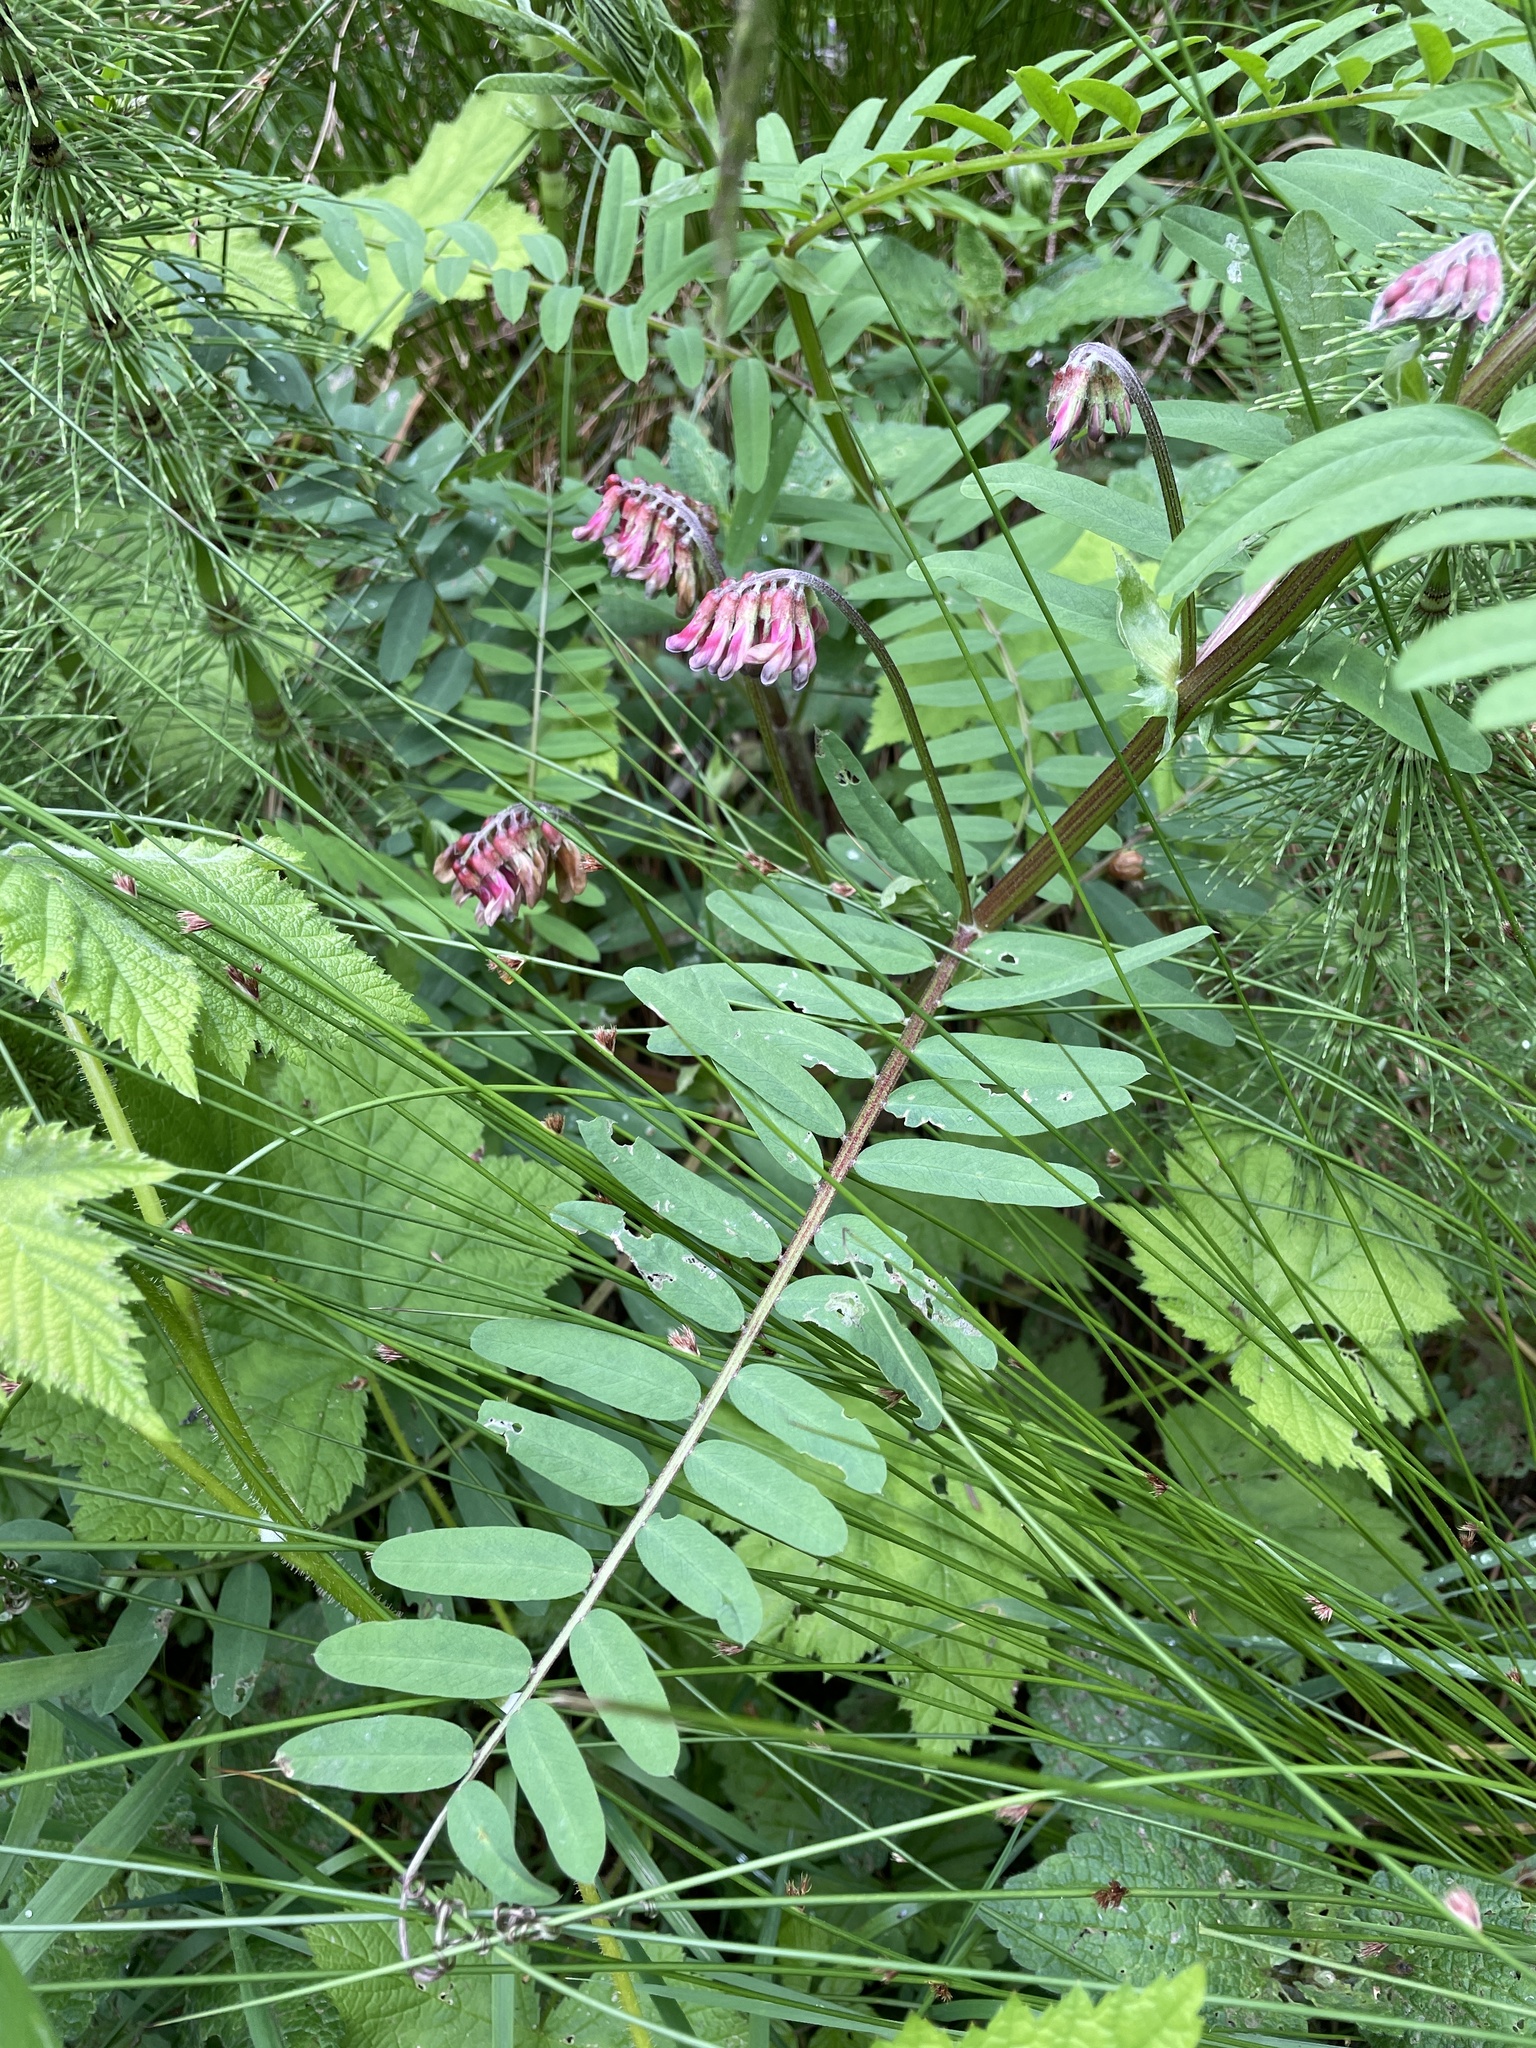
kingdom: Plantae
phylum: Tracheophyta
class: Magnoliopsida
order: Fabales
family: Fabaceae
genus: Vicia
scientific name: Vicia
